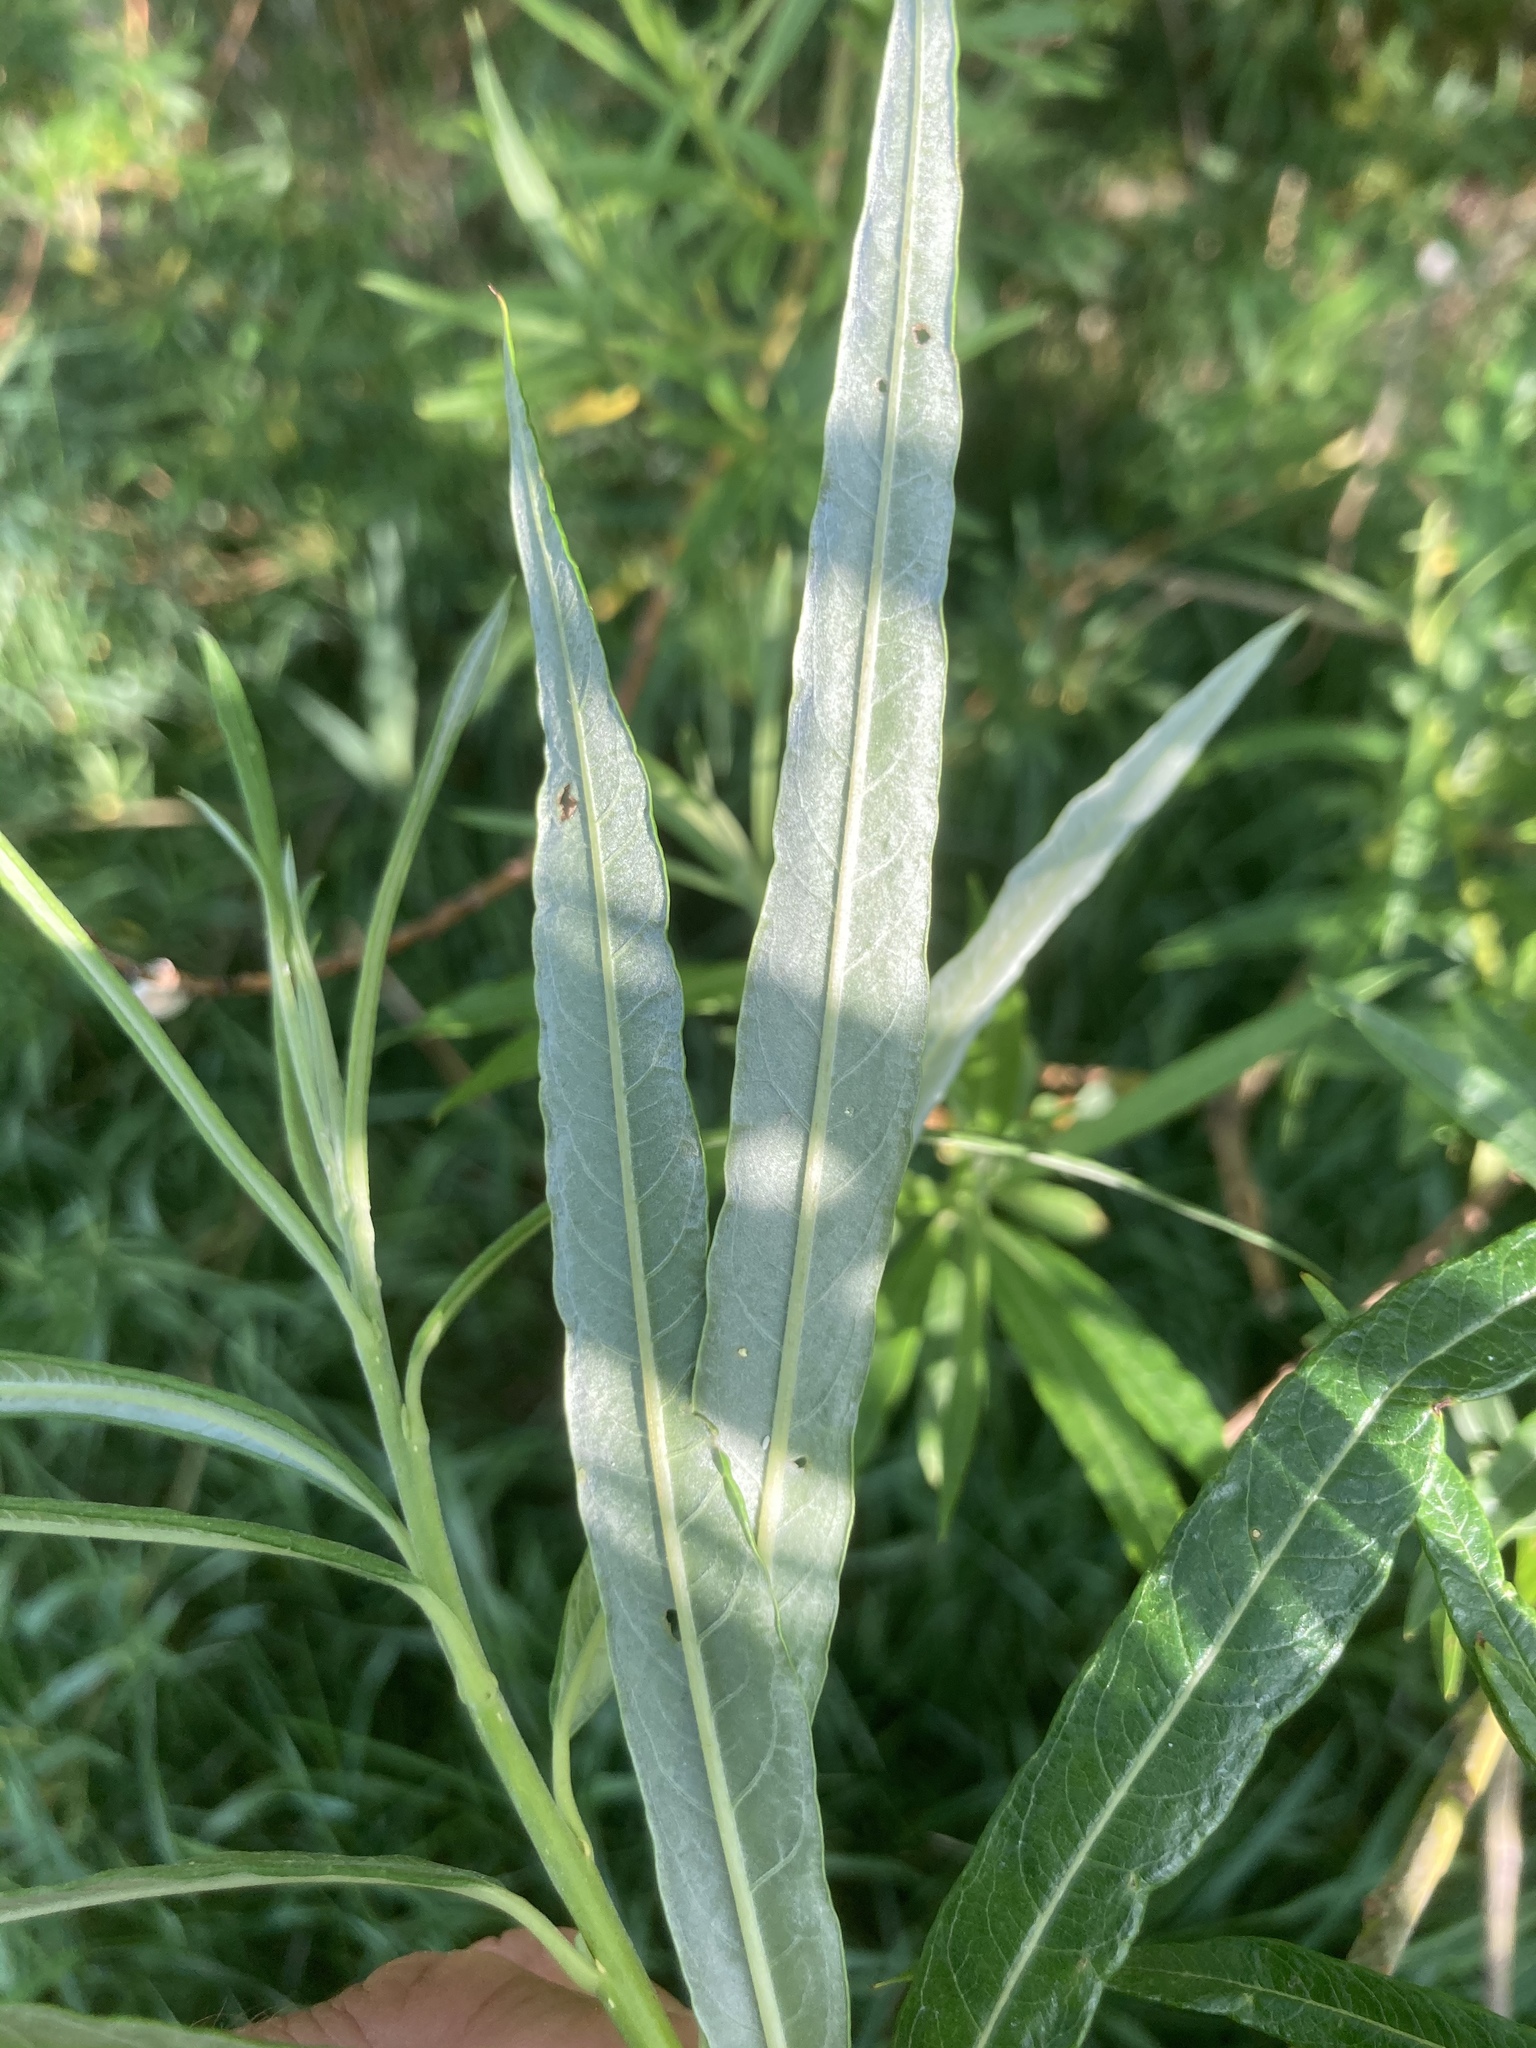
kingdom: Plantae
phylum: Tracheophyta
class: Magnoliopsida
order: Malpighiales
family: Salicaceae
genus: Salix
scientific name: Salix viminalis
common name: Osier
